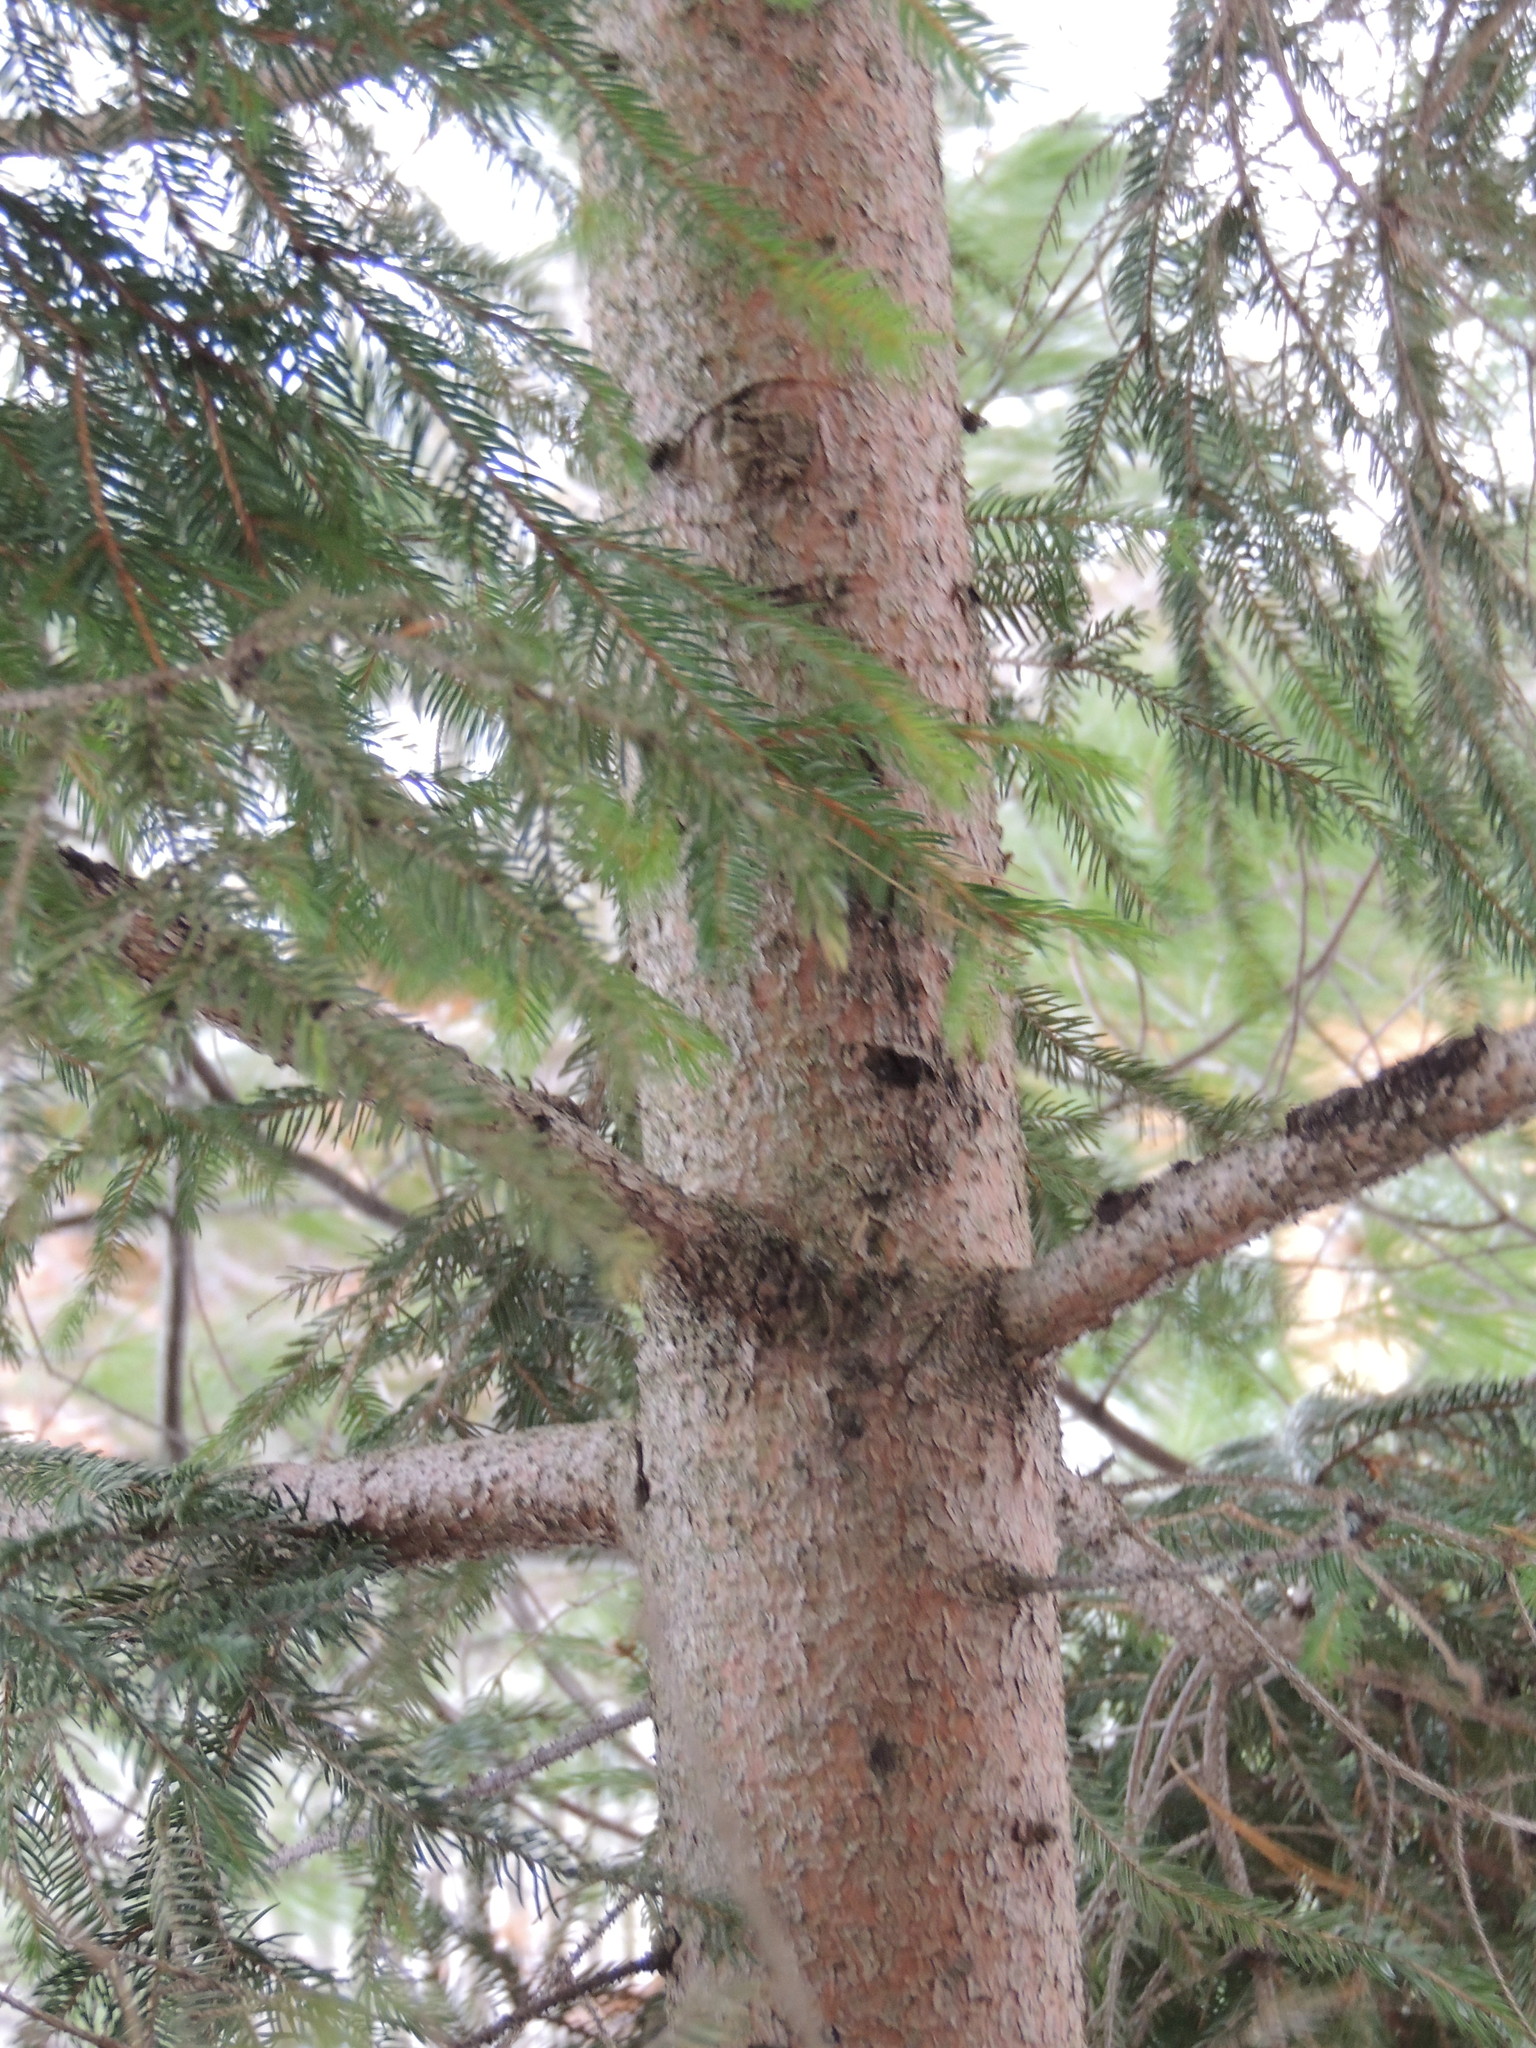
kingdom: Plantae
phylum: Tracheophyta
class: Pinopsida
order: Pinales
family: Pinaceae
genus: Picea
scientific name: Picea abies
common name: Norway spruce
